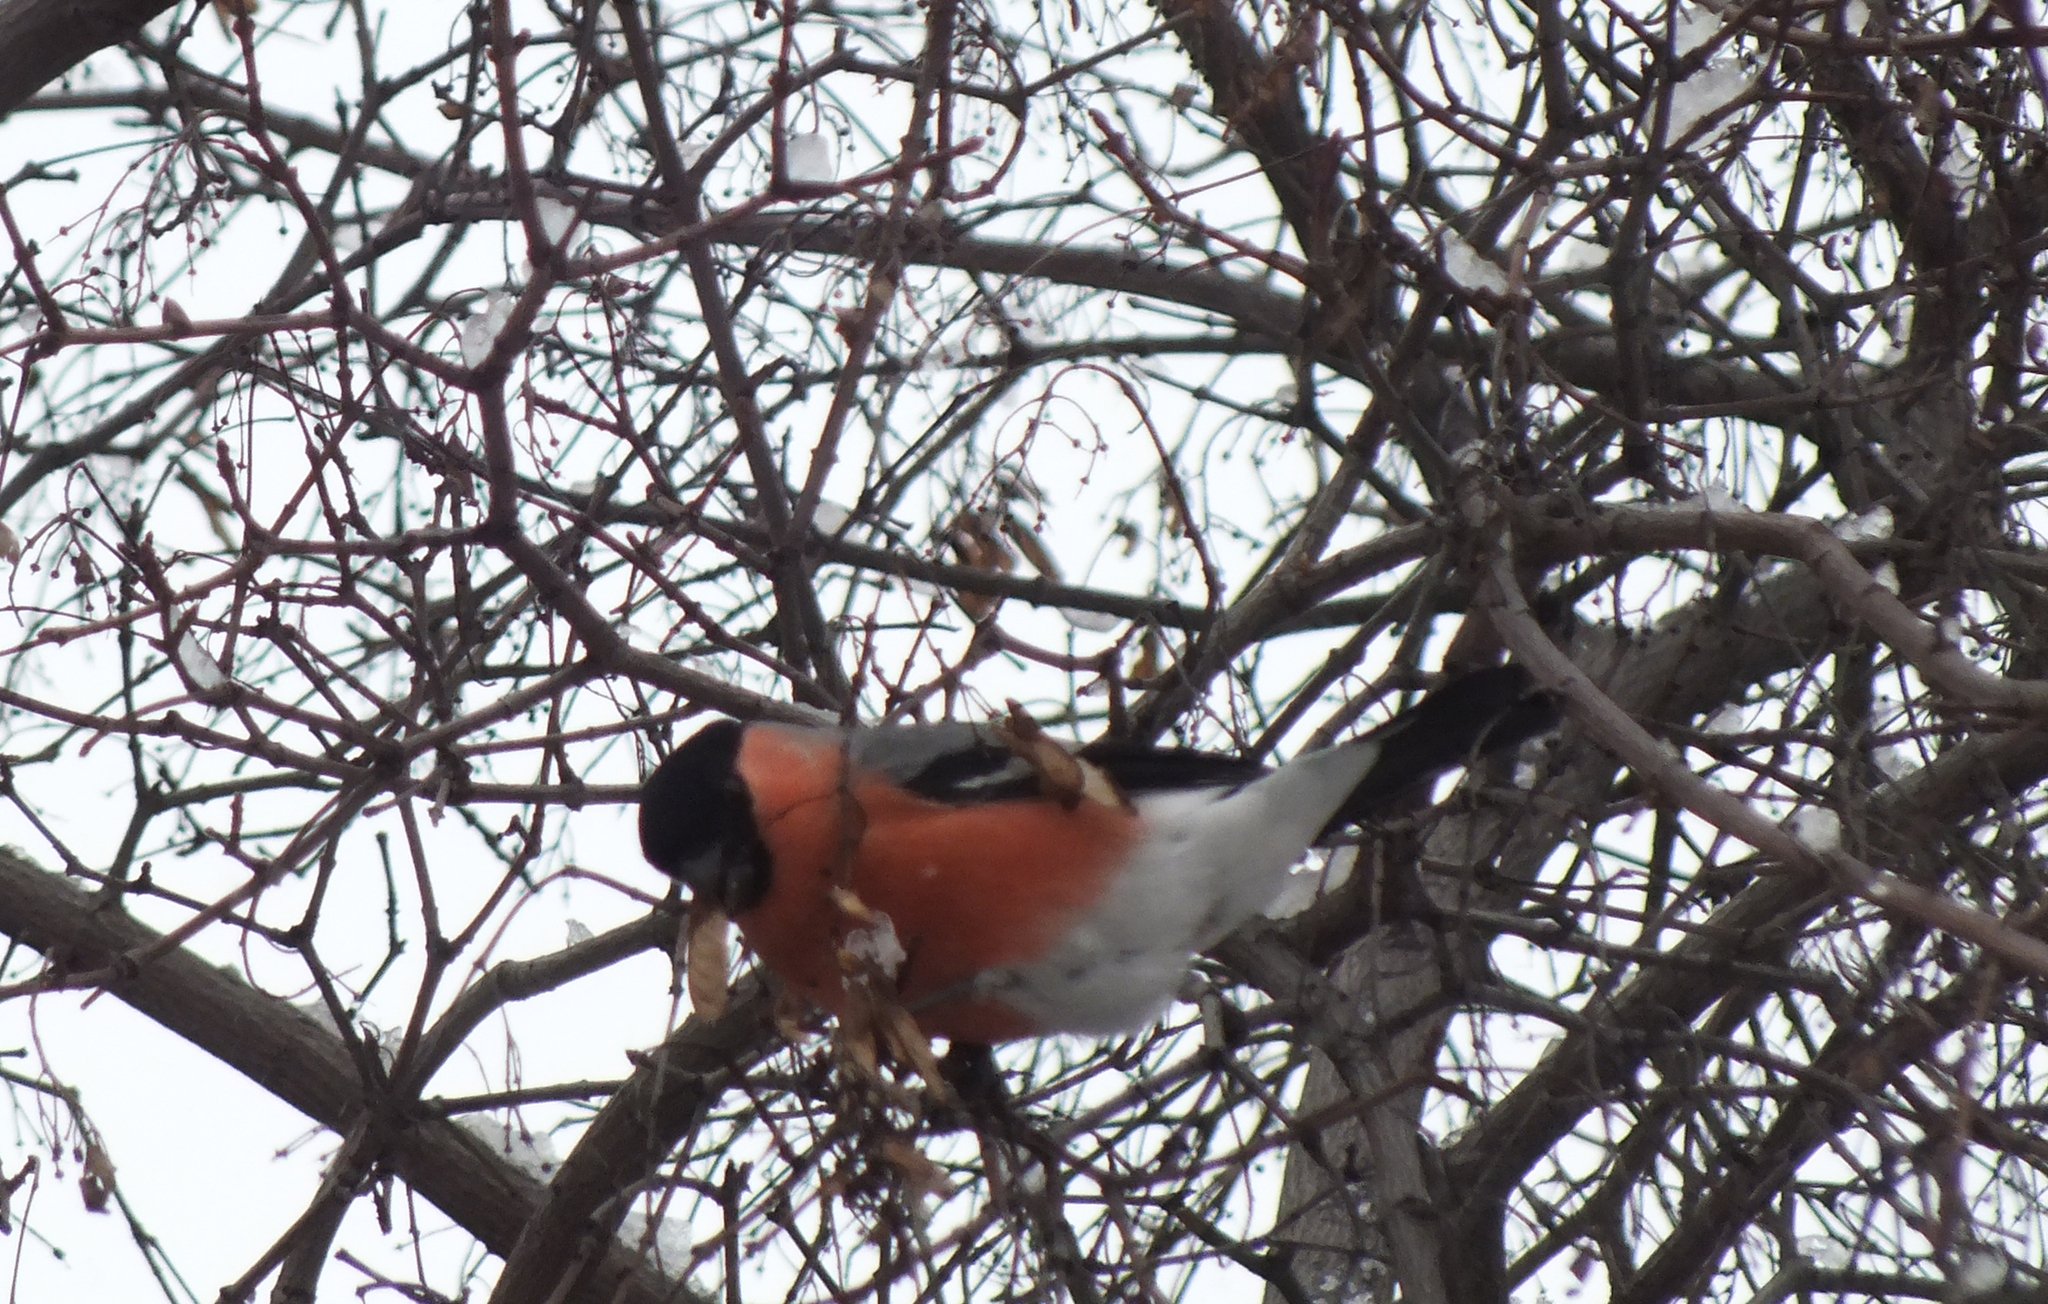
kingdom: Animalia
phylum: Chordata
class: Aves
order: Passeriformes
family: Fringillidae
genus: Pyrrhula
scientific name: Pyrrhula pyrrhula
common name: Eurasian bullfinch
